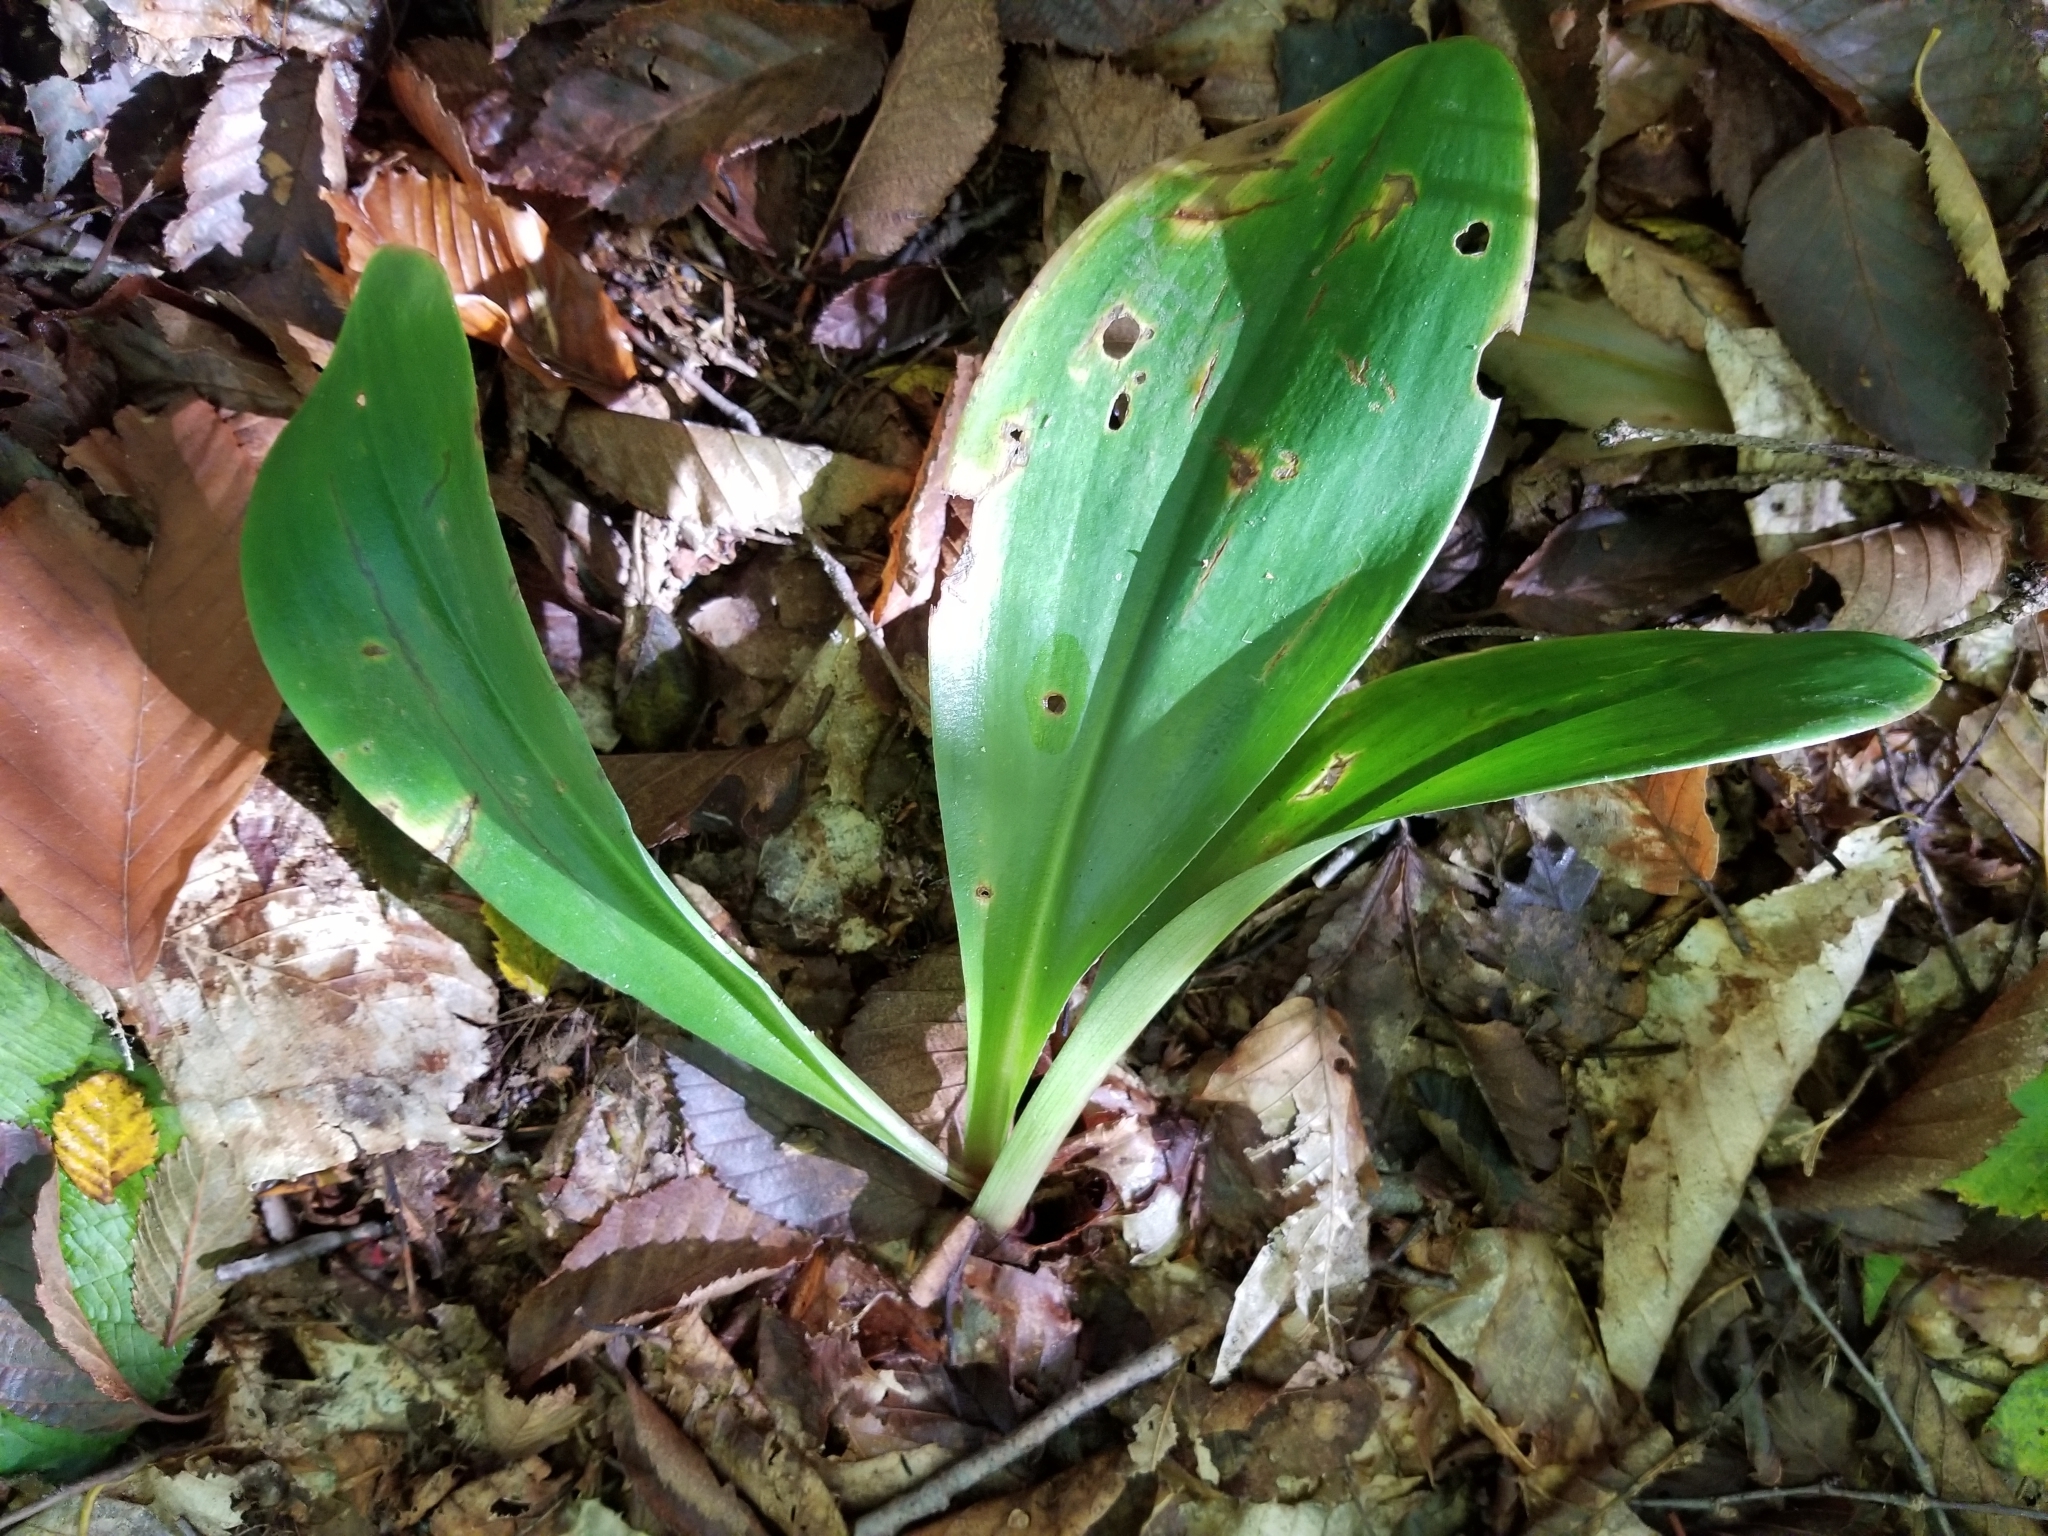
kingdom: Plantae
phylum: Tracheophyta
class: Liliopsida
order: Liliales
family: Liliaceae
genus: Clintonia
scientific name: Clintonia borealis
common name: Yellow clintonia
